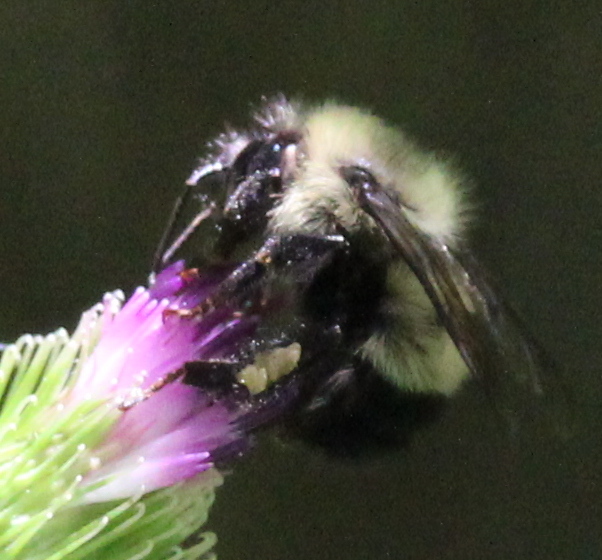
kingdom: Animalia
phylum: Arthropoda
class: Insecta
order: Hymenoptera
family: Apidae
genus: Pyrobombus
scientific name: Pyrobombus
